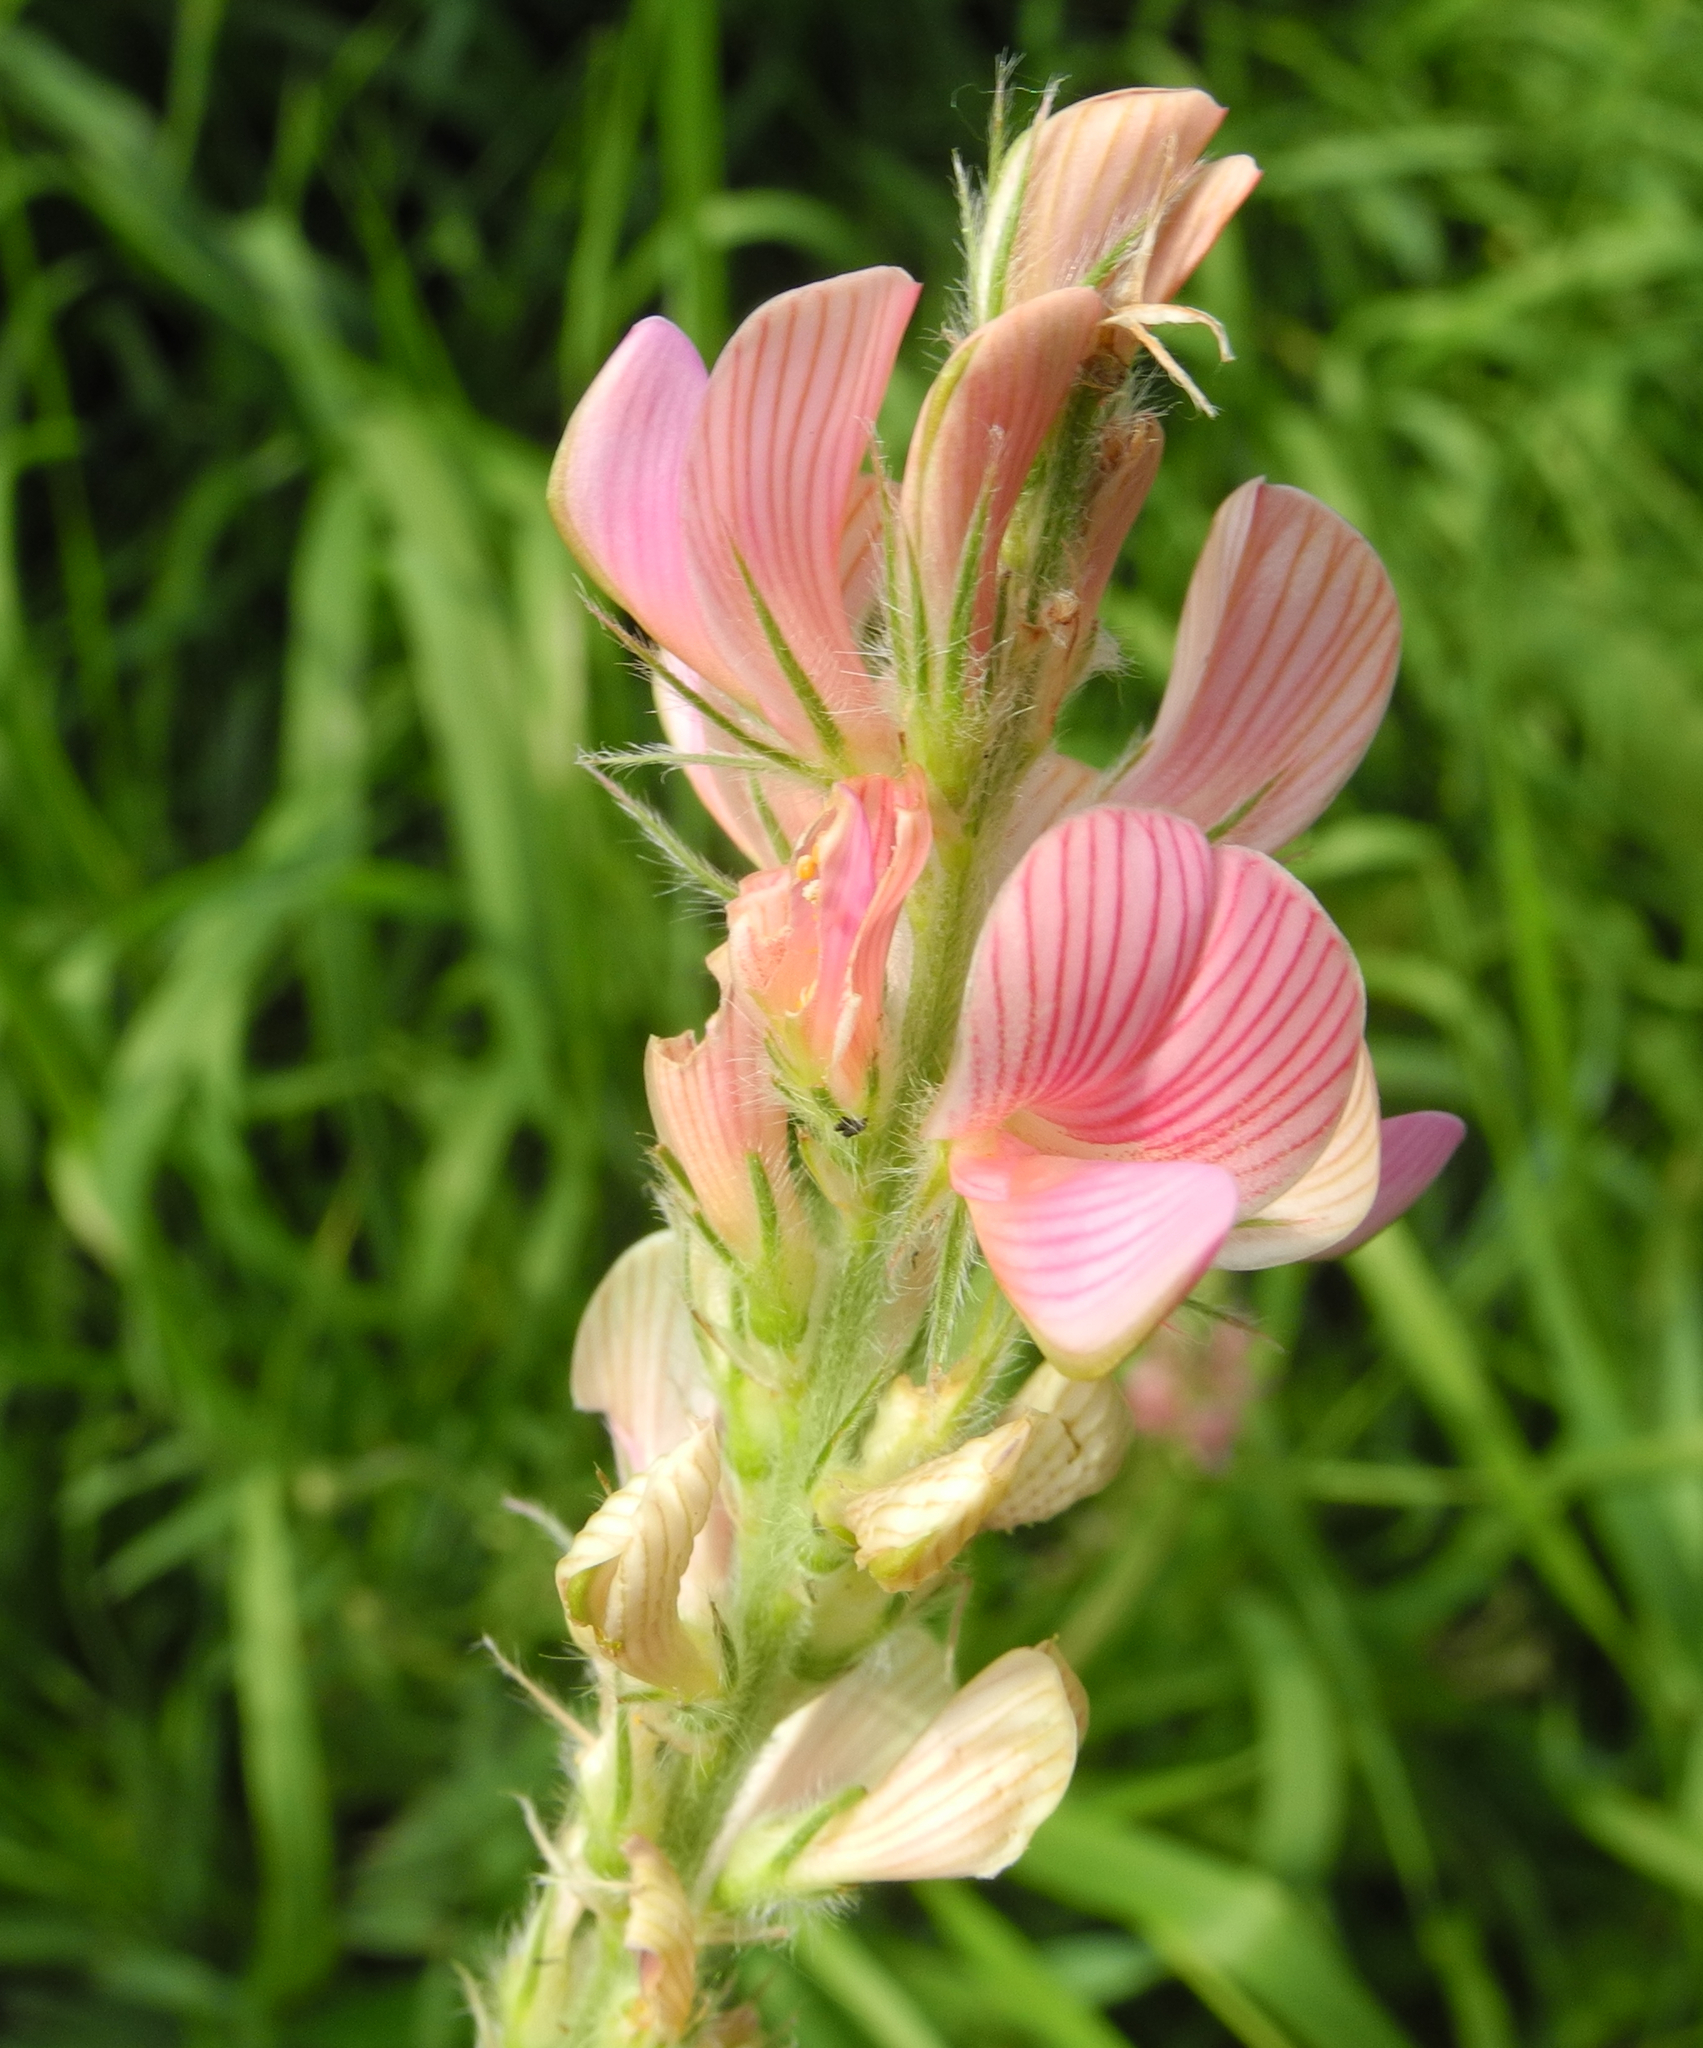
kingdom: Plantae
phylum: Tracheophyta
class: Magnoliopsida
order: Fabales
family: Fabaceae
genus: Onobrychis
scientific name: Onobrychis viciifolia
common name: Sainfoin
